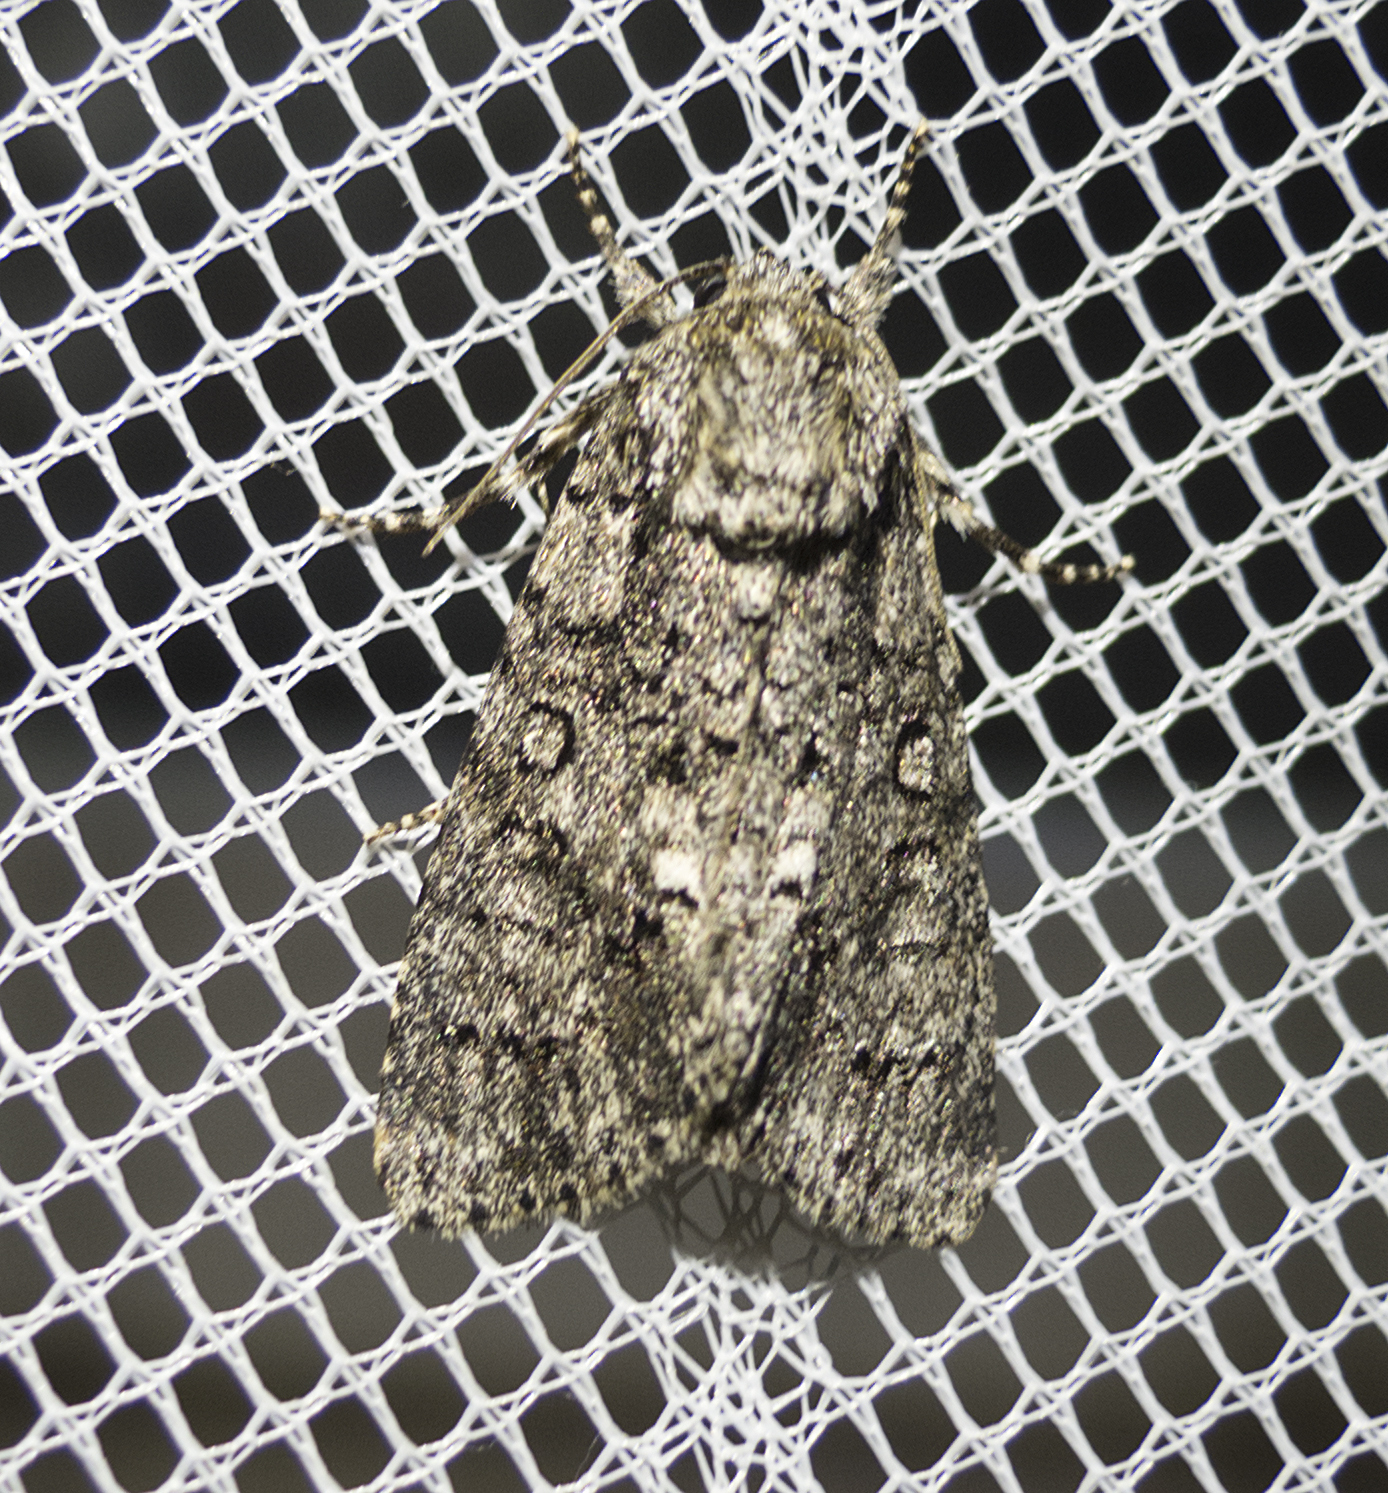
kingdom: Animalia
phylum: Arthropoda
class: Insecta
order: Lepidoptera
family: Noctuidae
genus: Acronicta
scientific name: Acronicta rumicis
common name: Knot grass
